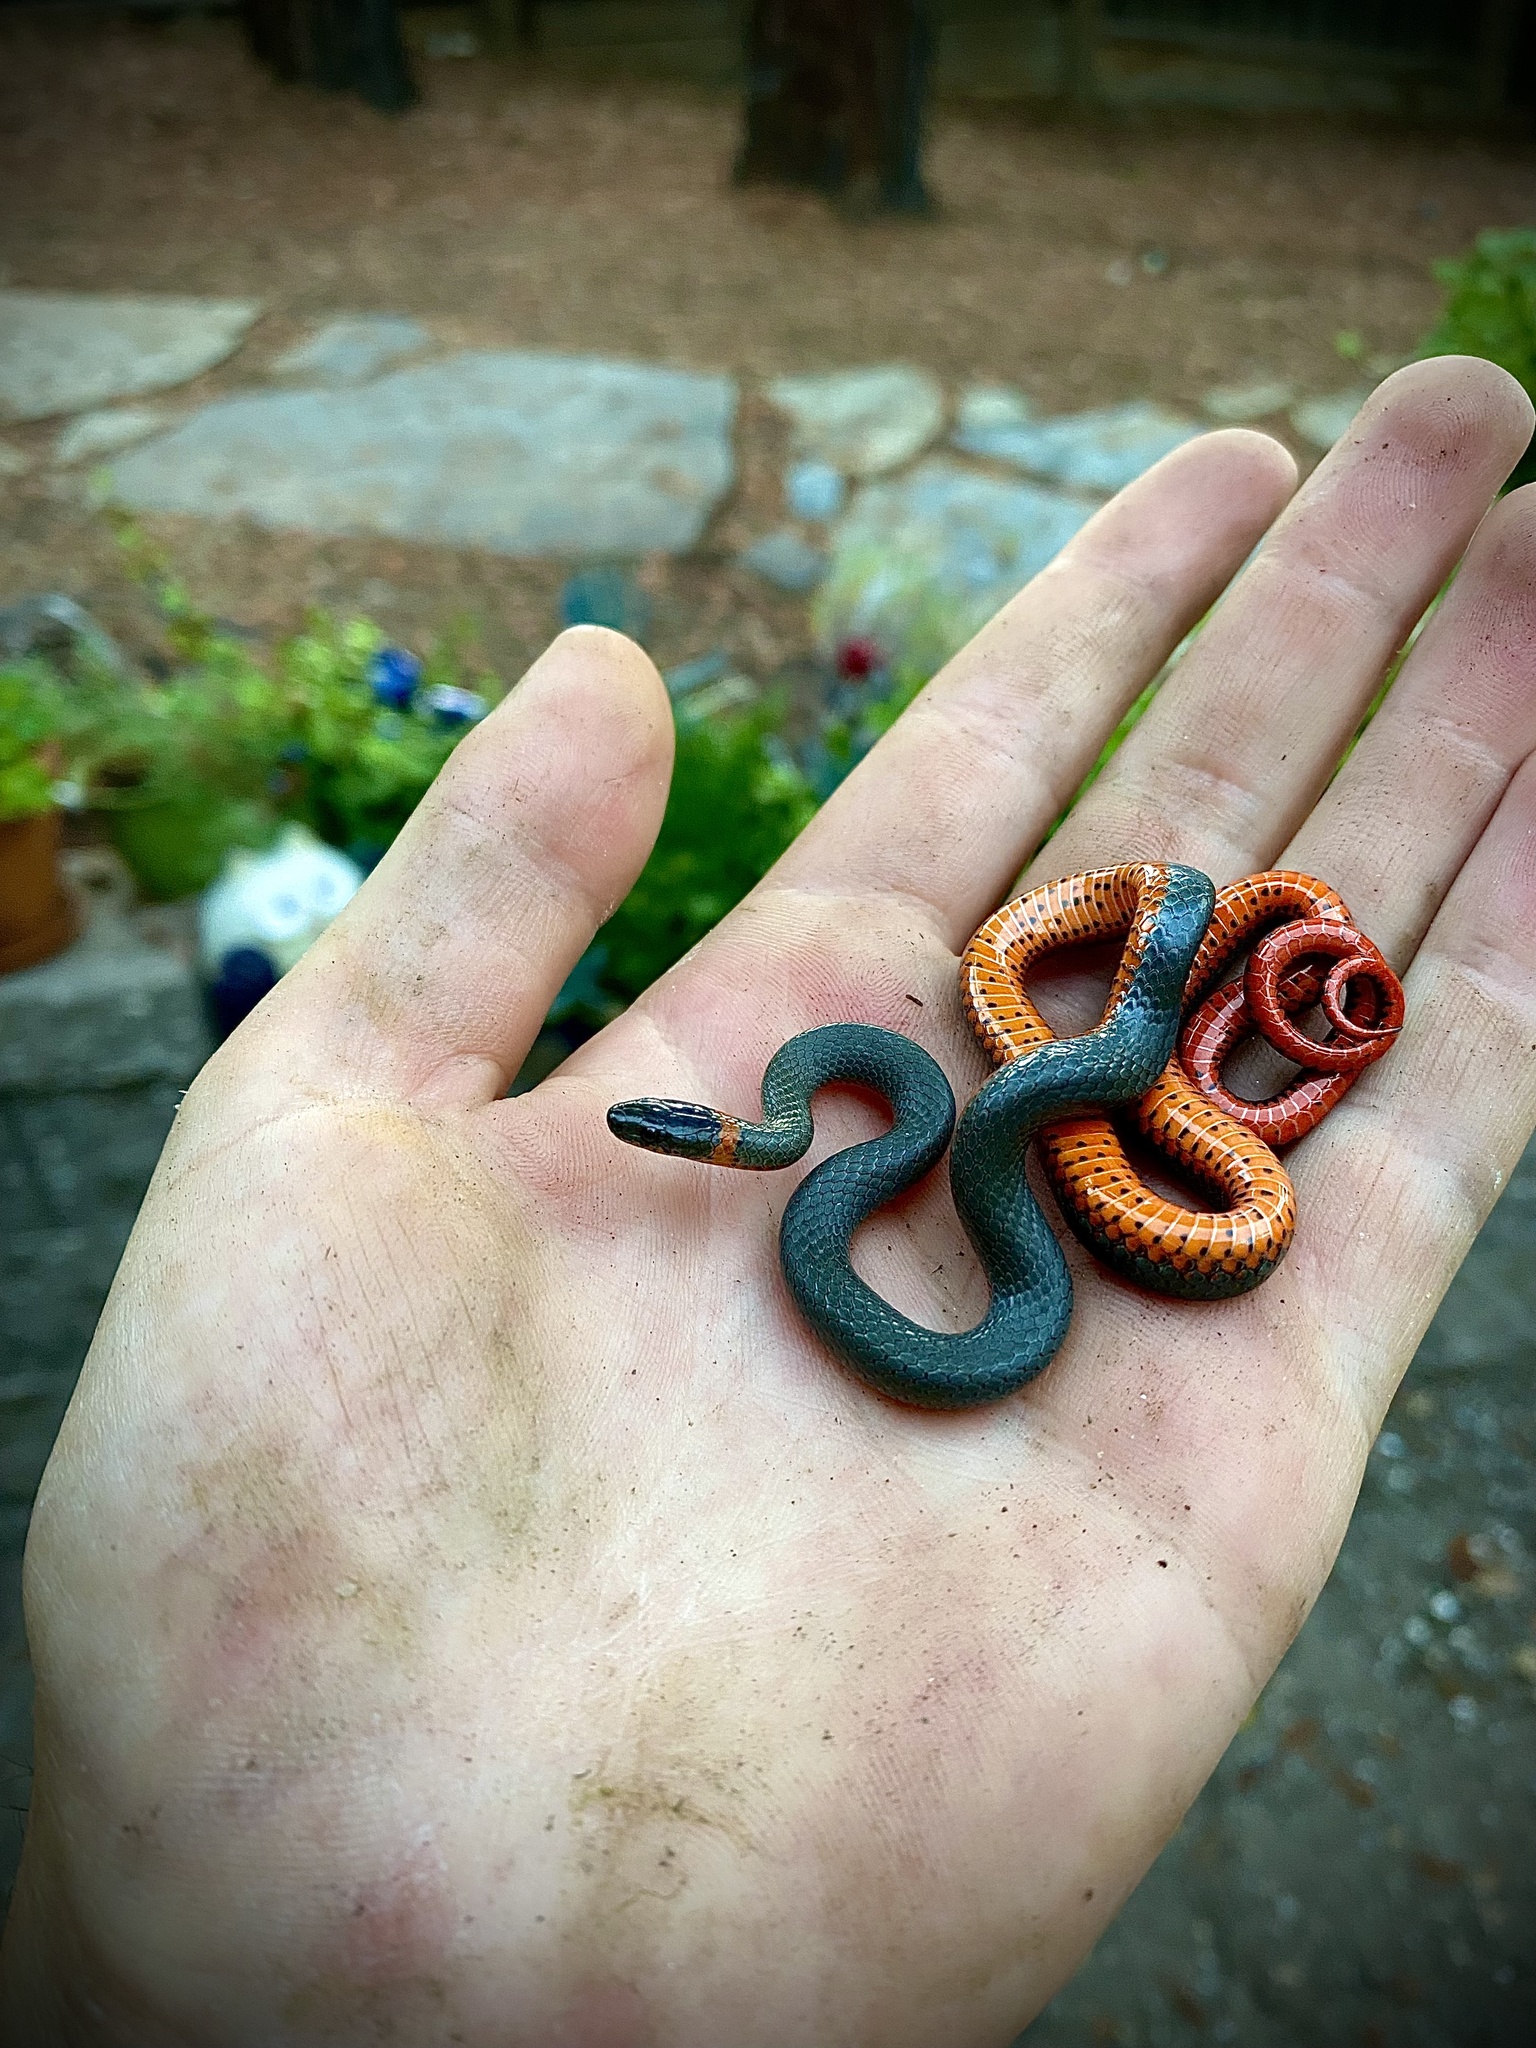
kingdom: Animalia
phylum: Chordata
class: Squamata
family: Colubridae
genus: Diadophis
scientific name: Diadophis punctatus
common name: Ringneck snake
